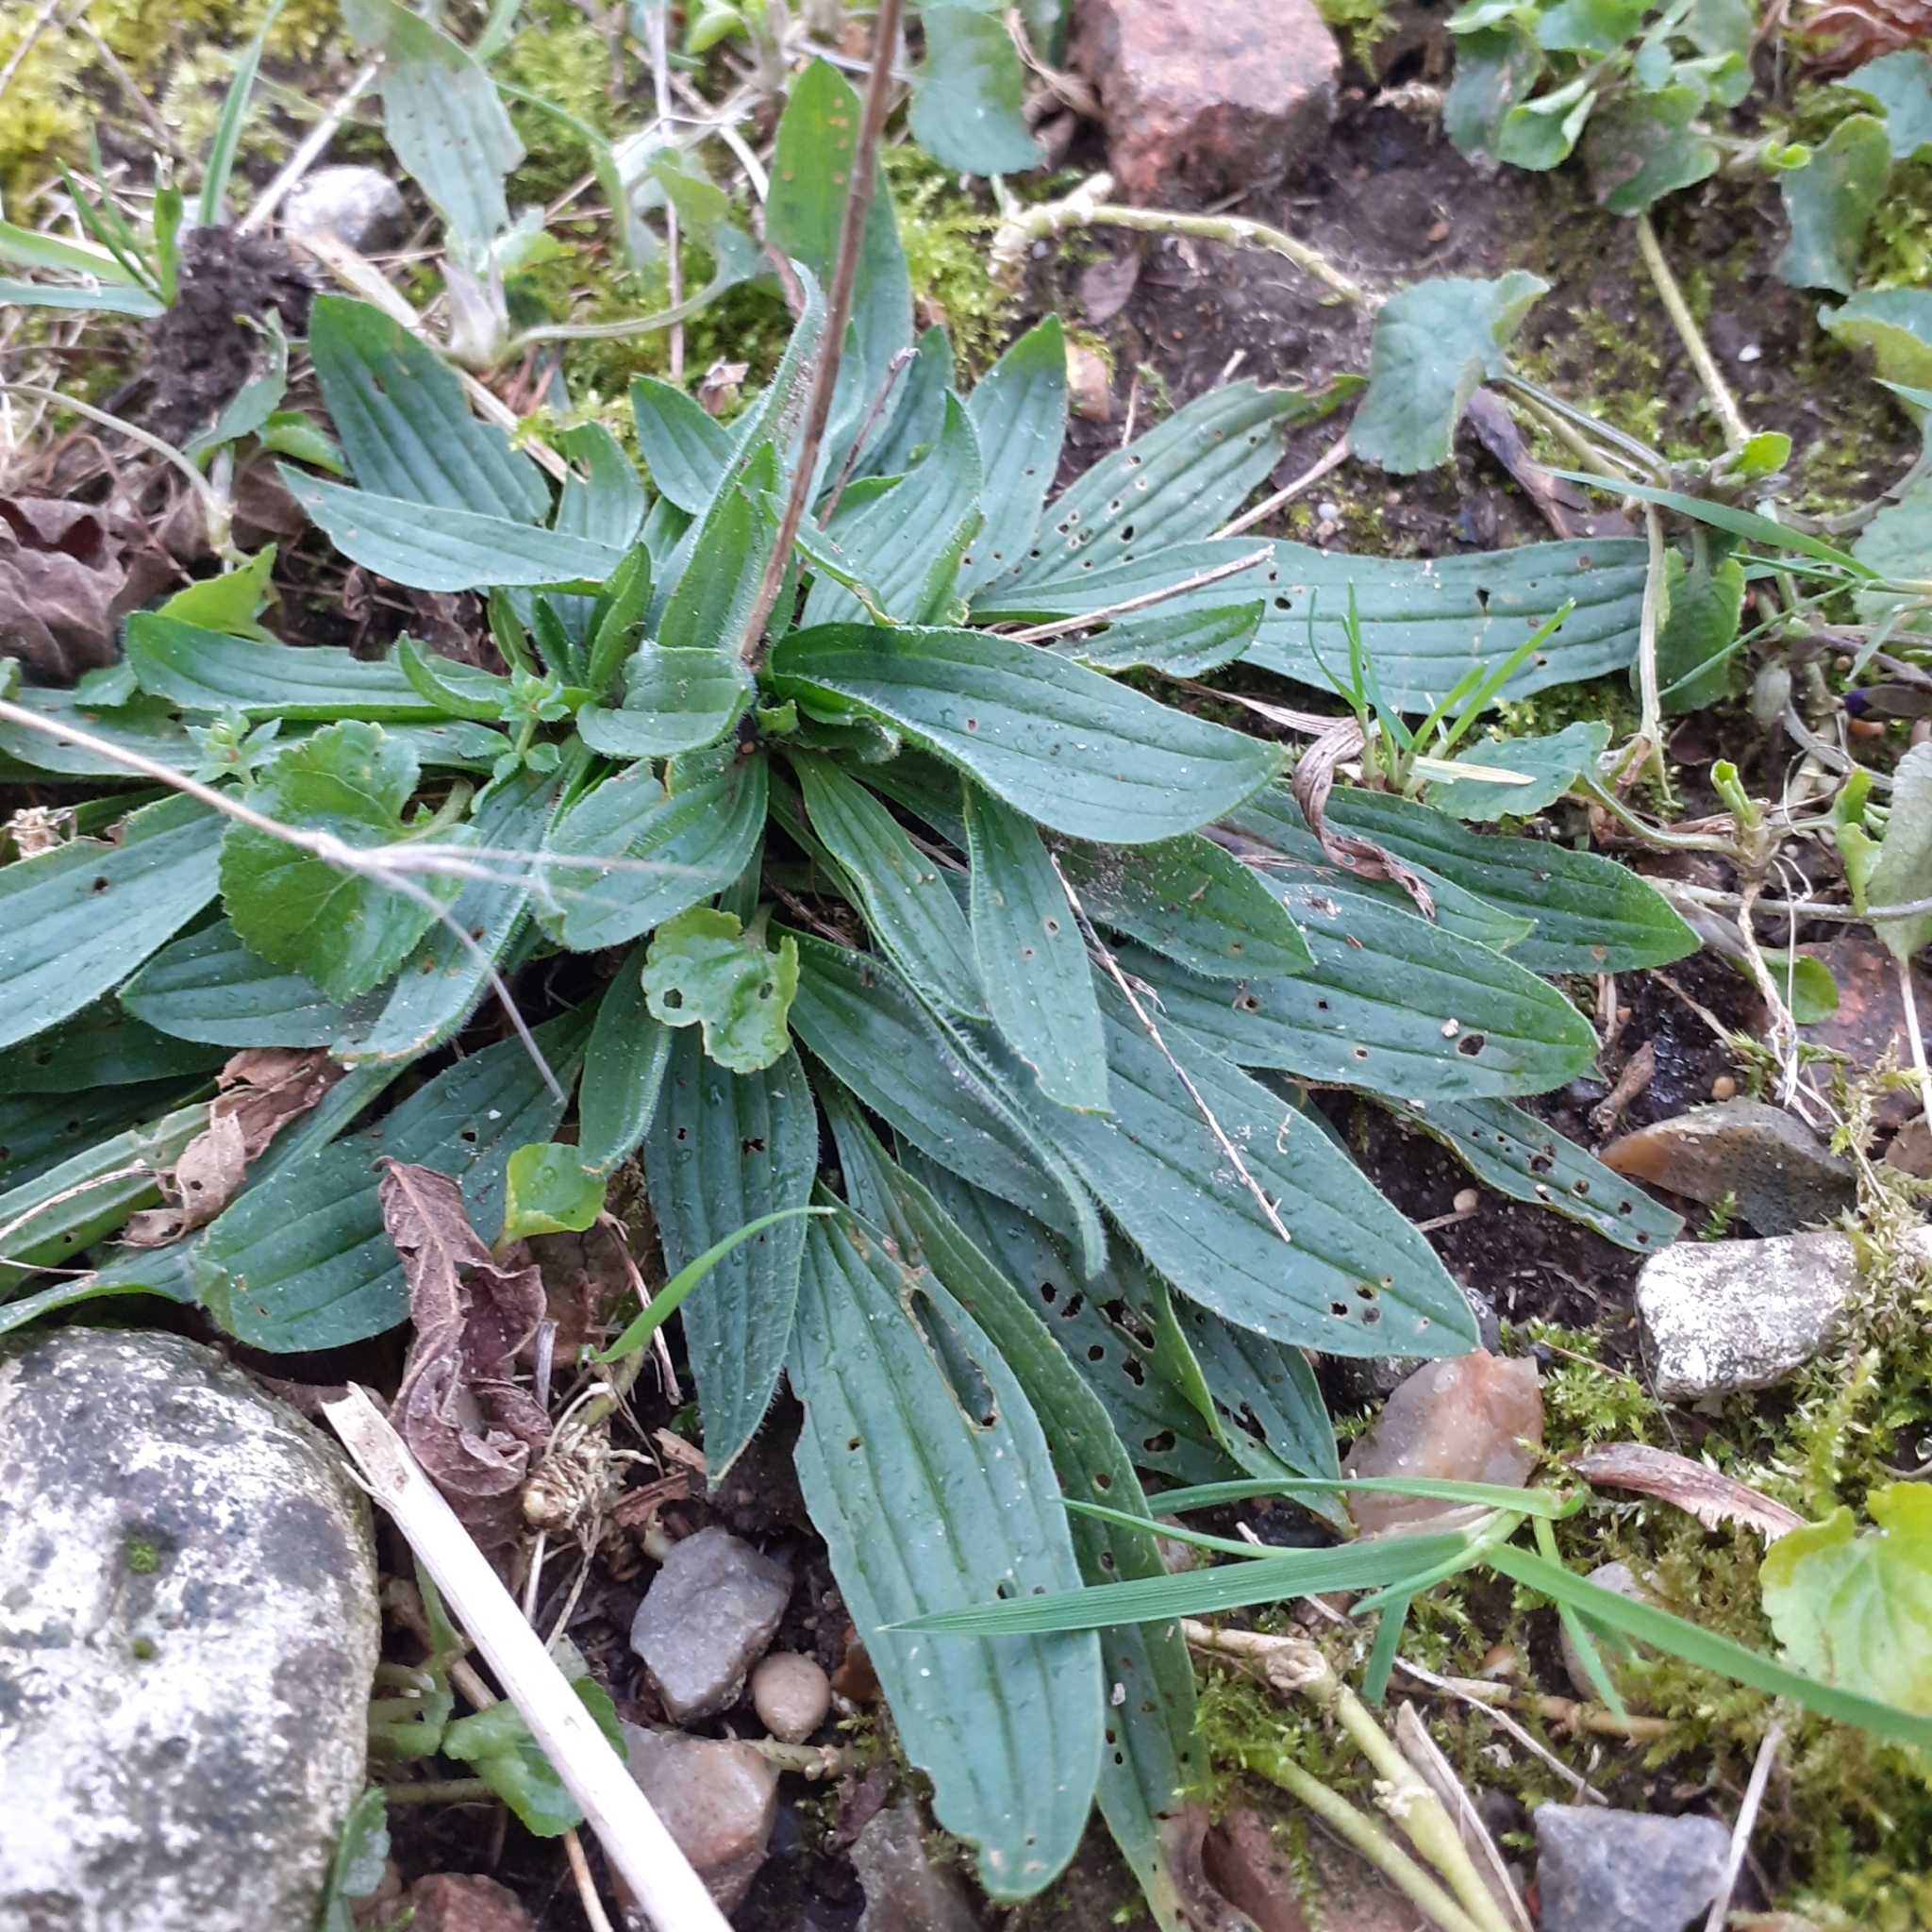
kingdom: Plantae
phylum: Tracheophyta
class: Magnoliopsida
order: Lamiales
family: Plantaginaceae
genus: Plantago
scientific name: Plantago lanceolata
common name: Ribwort plantain
